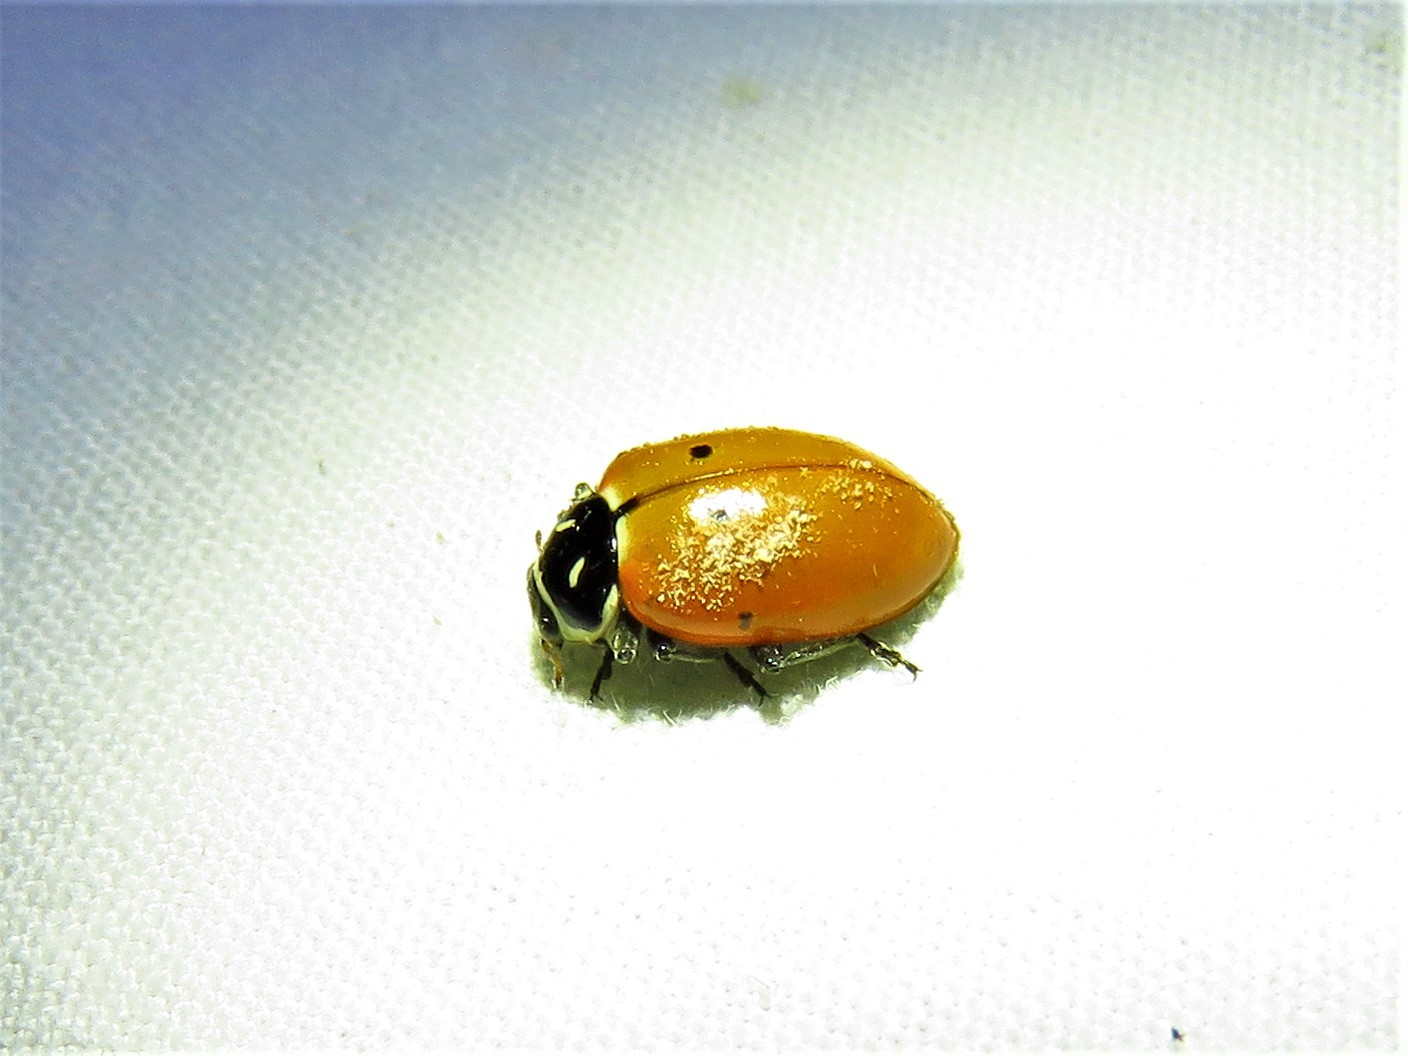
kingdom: Animalia
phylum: Arthropoda
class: Insecta
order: Coleoptera
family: Coccinellidae
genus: Hippodamia
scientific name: Hippodamia convergens
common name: Convergent lady beetle
